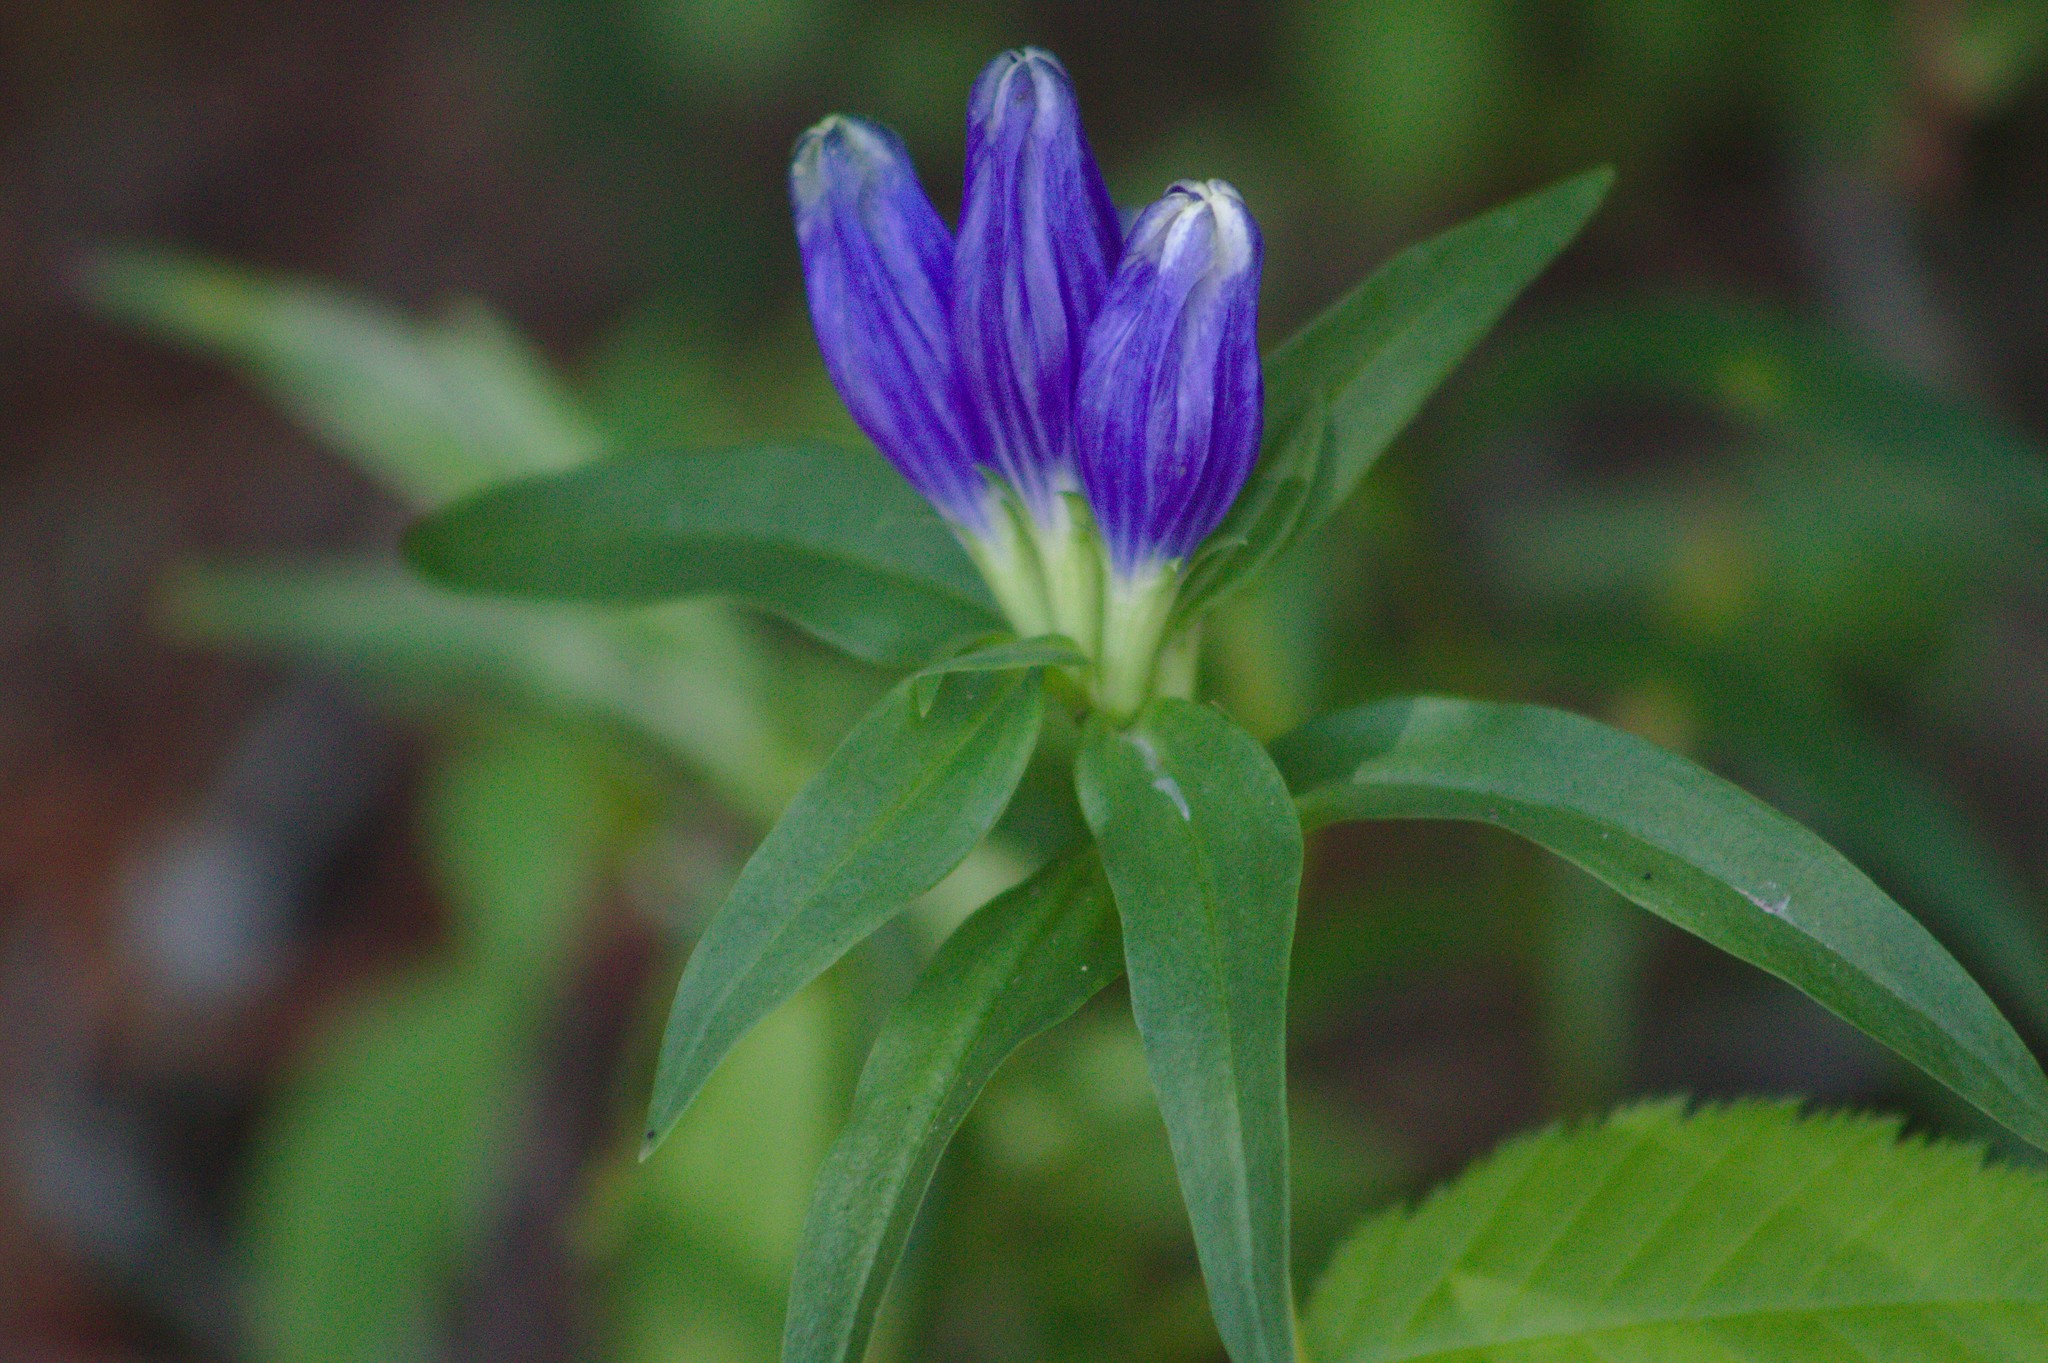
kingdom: Plantae
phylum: Tracheophyta
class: Magnoliopsida
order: Gentianales
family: Gentianaceae
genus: Gentiana
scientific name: Gentiana linearis
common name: Bastard gentian
